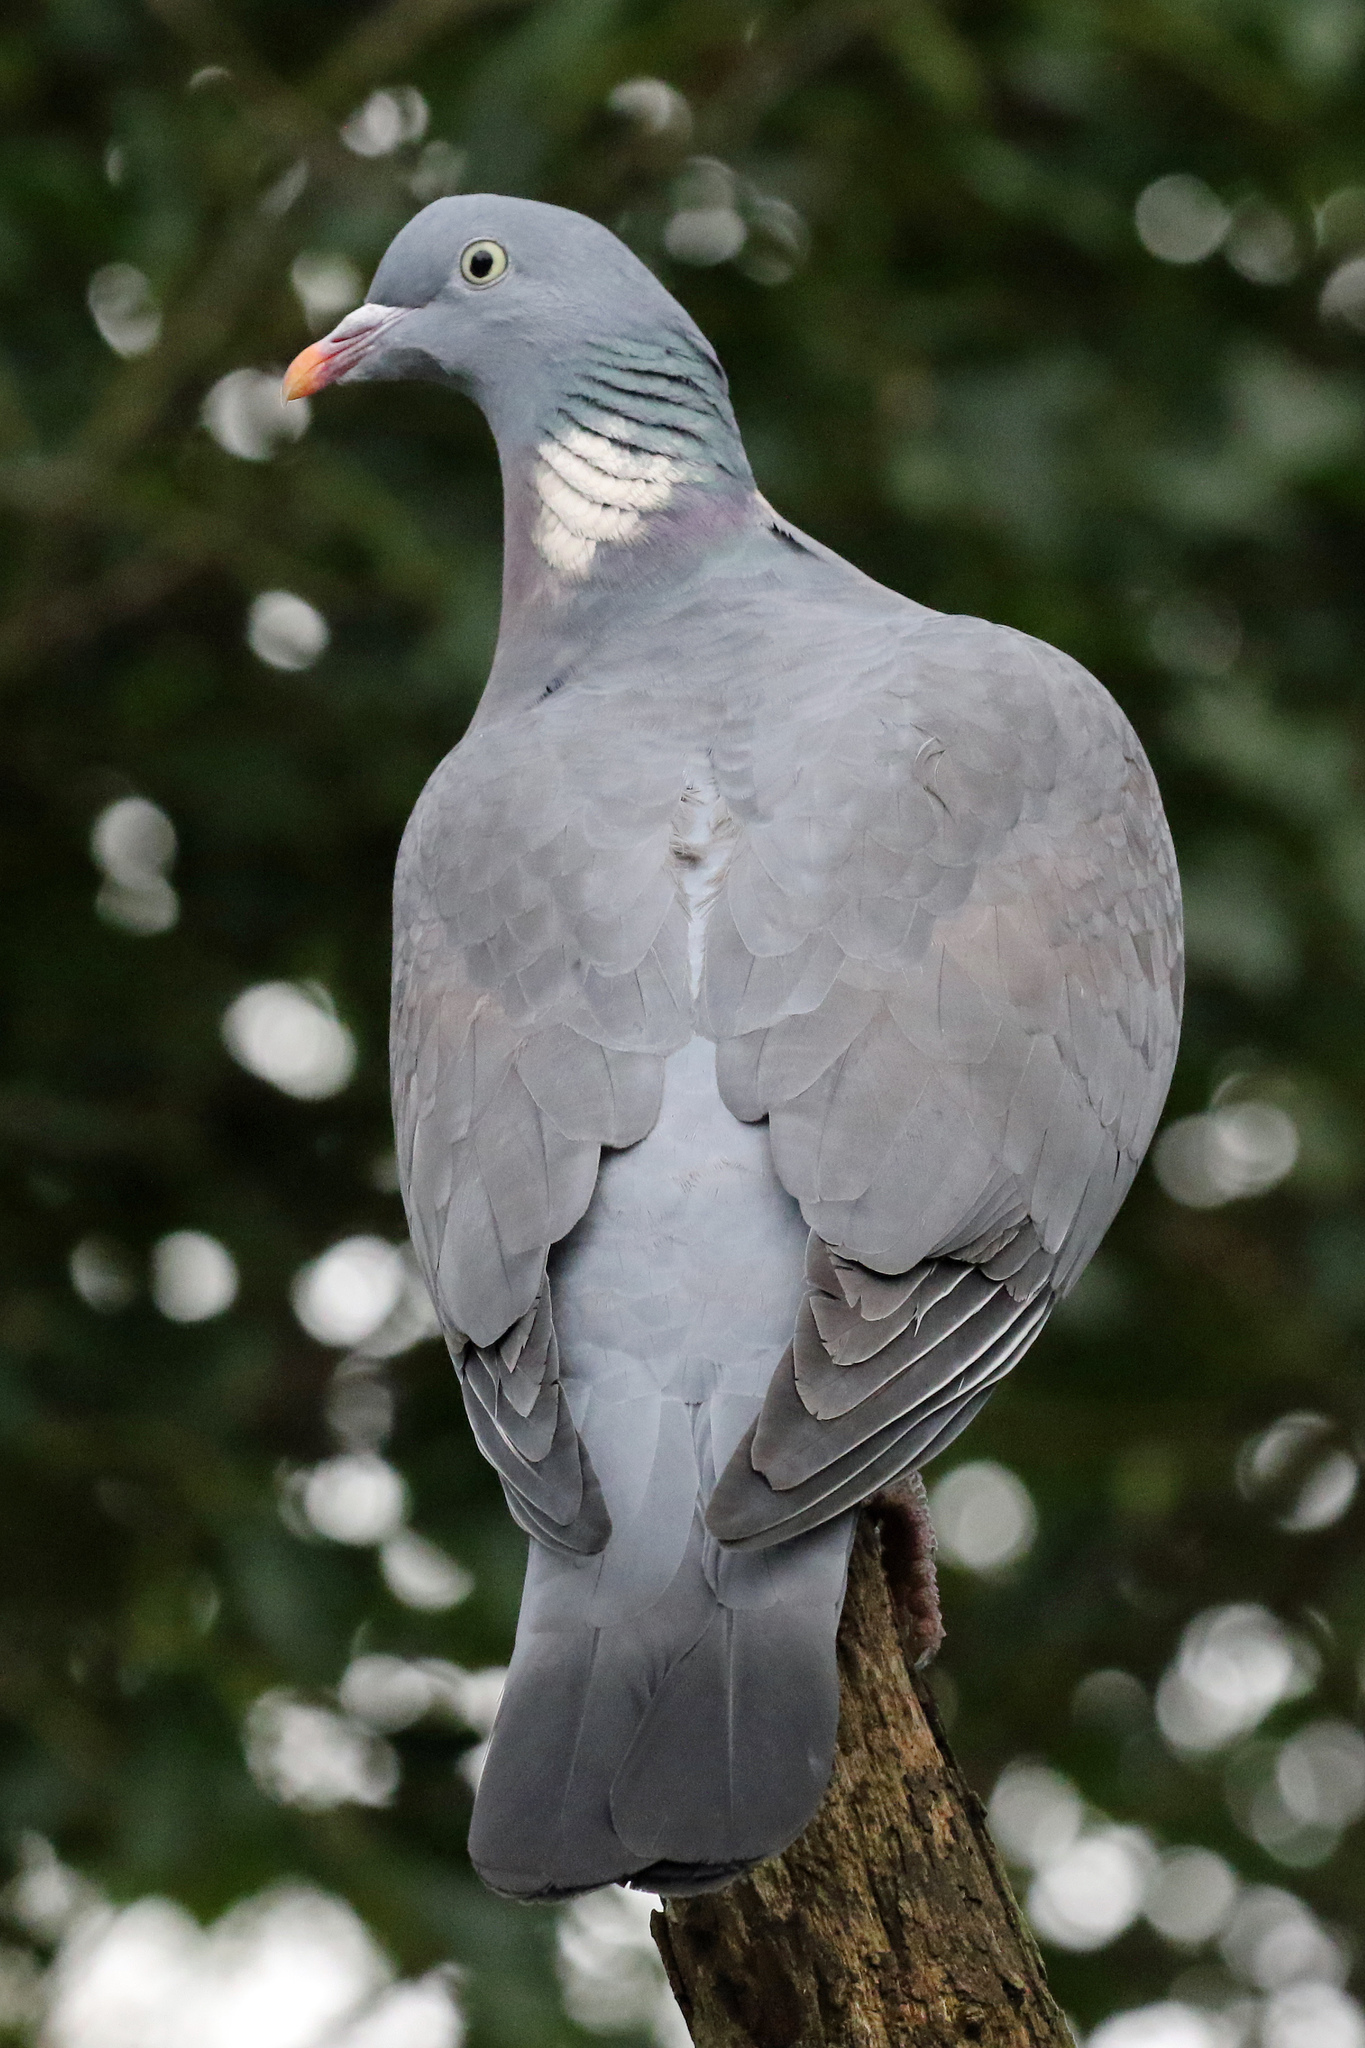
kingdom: Animalia
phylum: Chordata
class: Aves
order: Columbiformes
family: Columbidae
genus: Columba
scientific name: Columba palumbus
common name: Common wood pigeon
